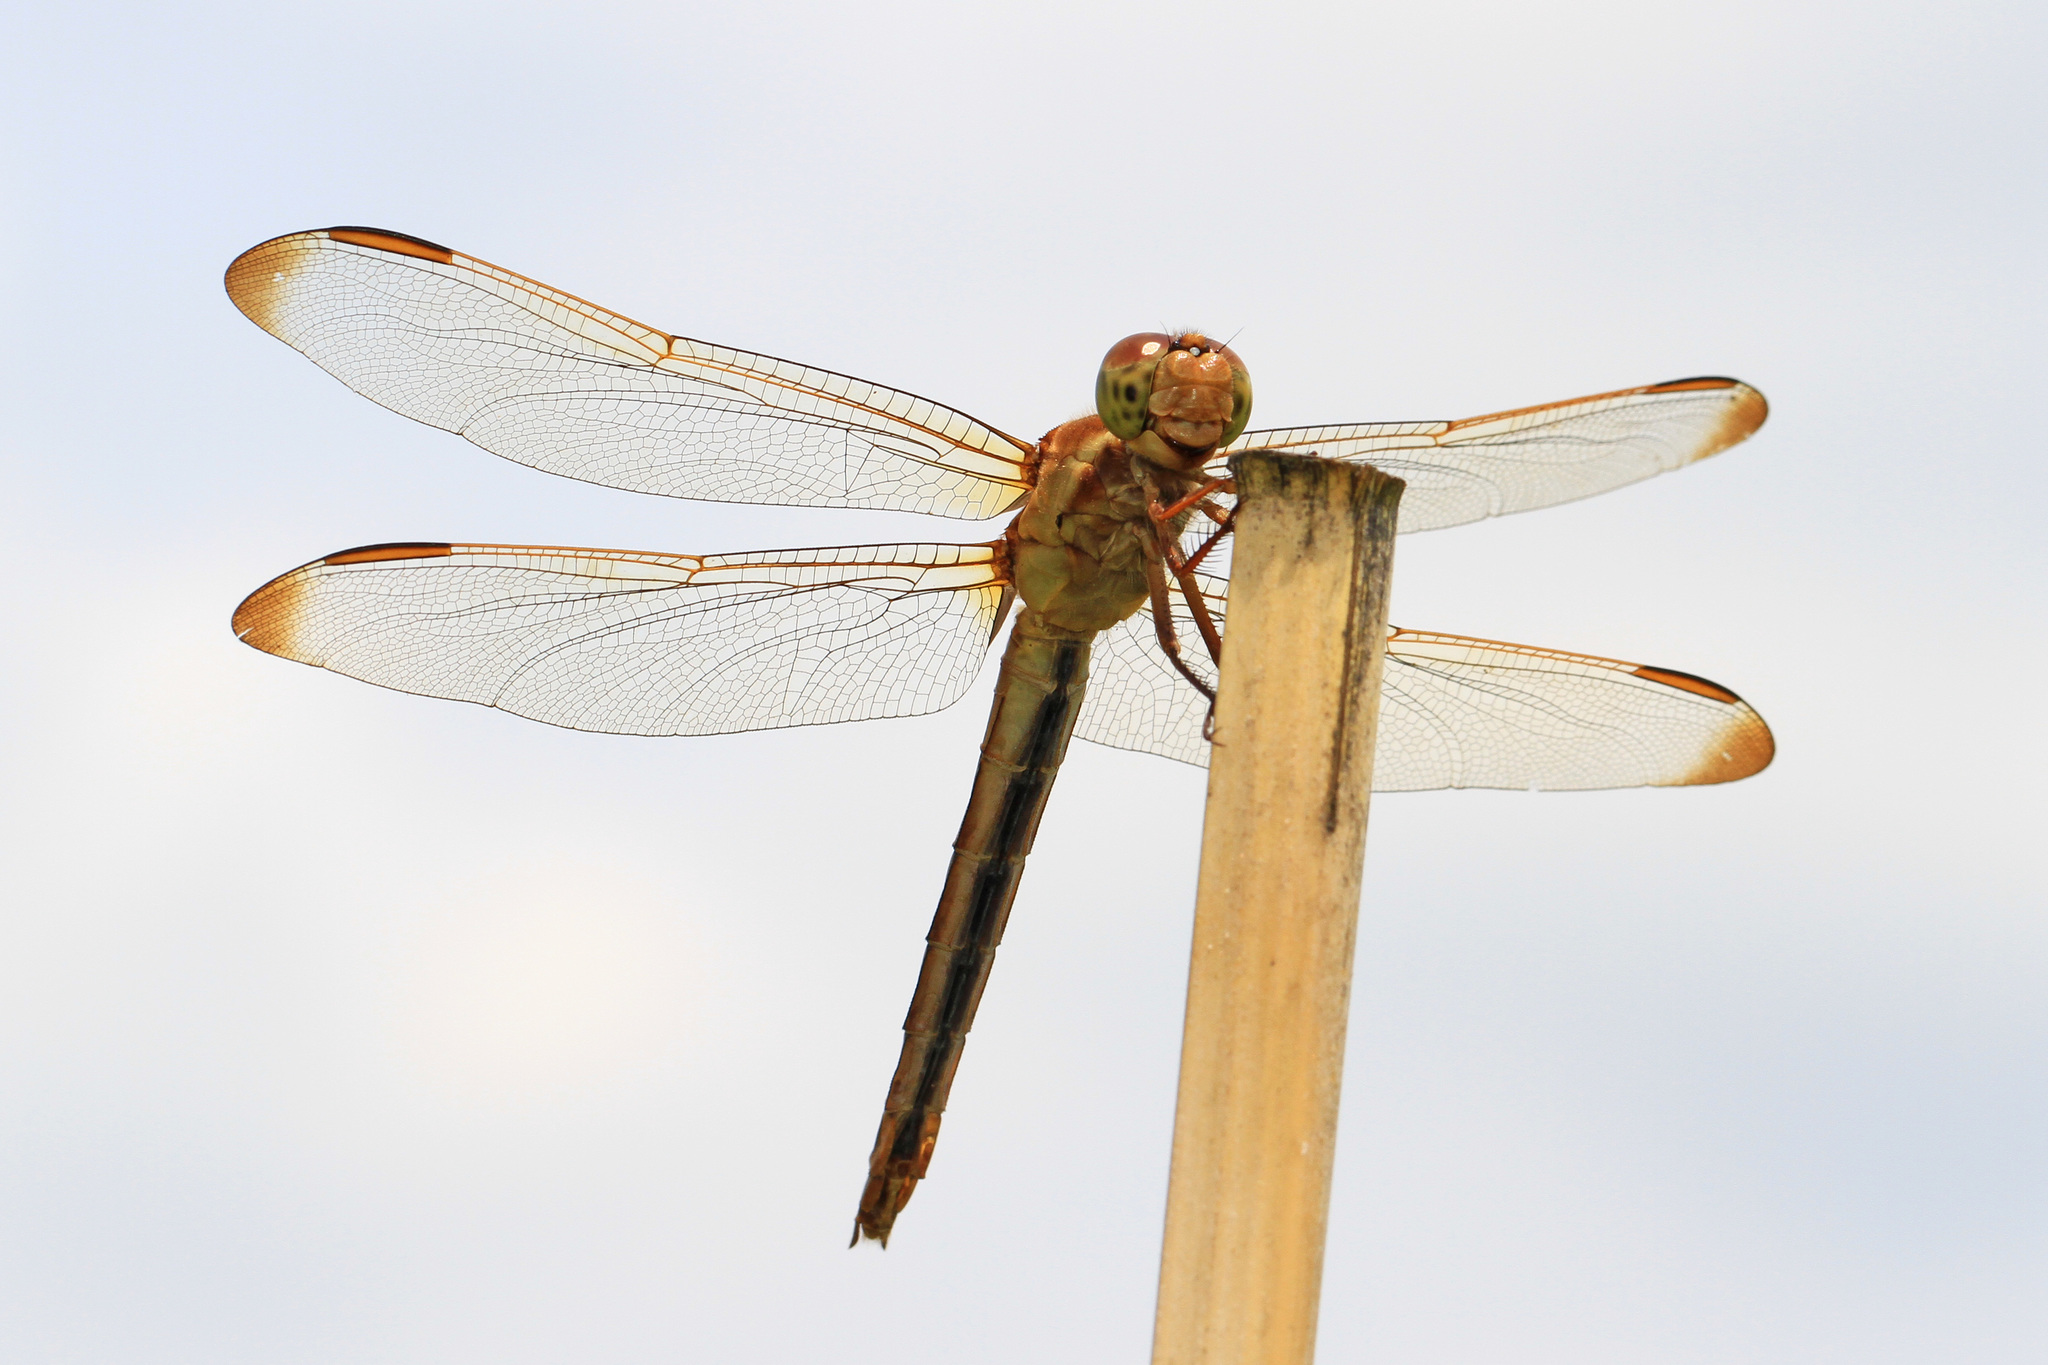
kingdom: Animalia
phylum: Arthropoda
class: Insecta
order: Odonata
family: Libellulidae
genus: Libellula
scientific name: Libellula needhami
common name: Needham's skimmer
